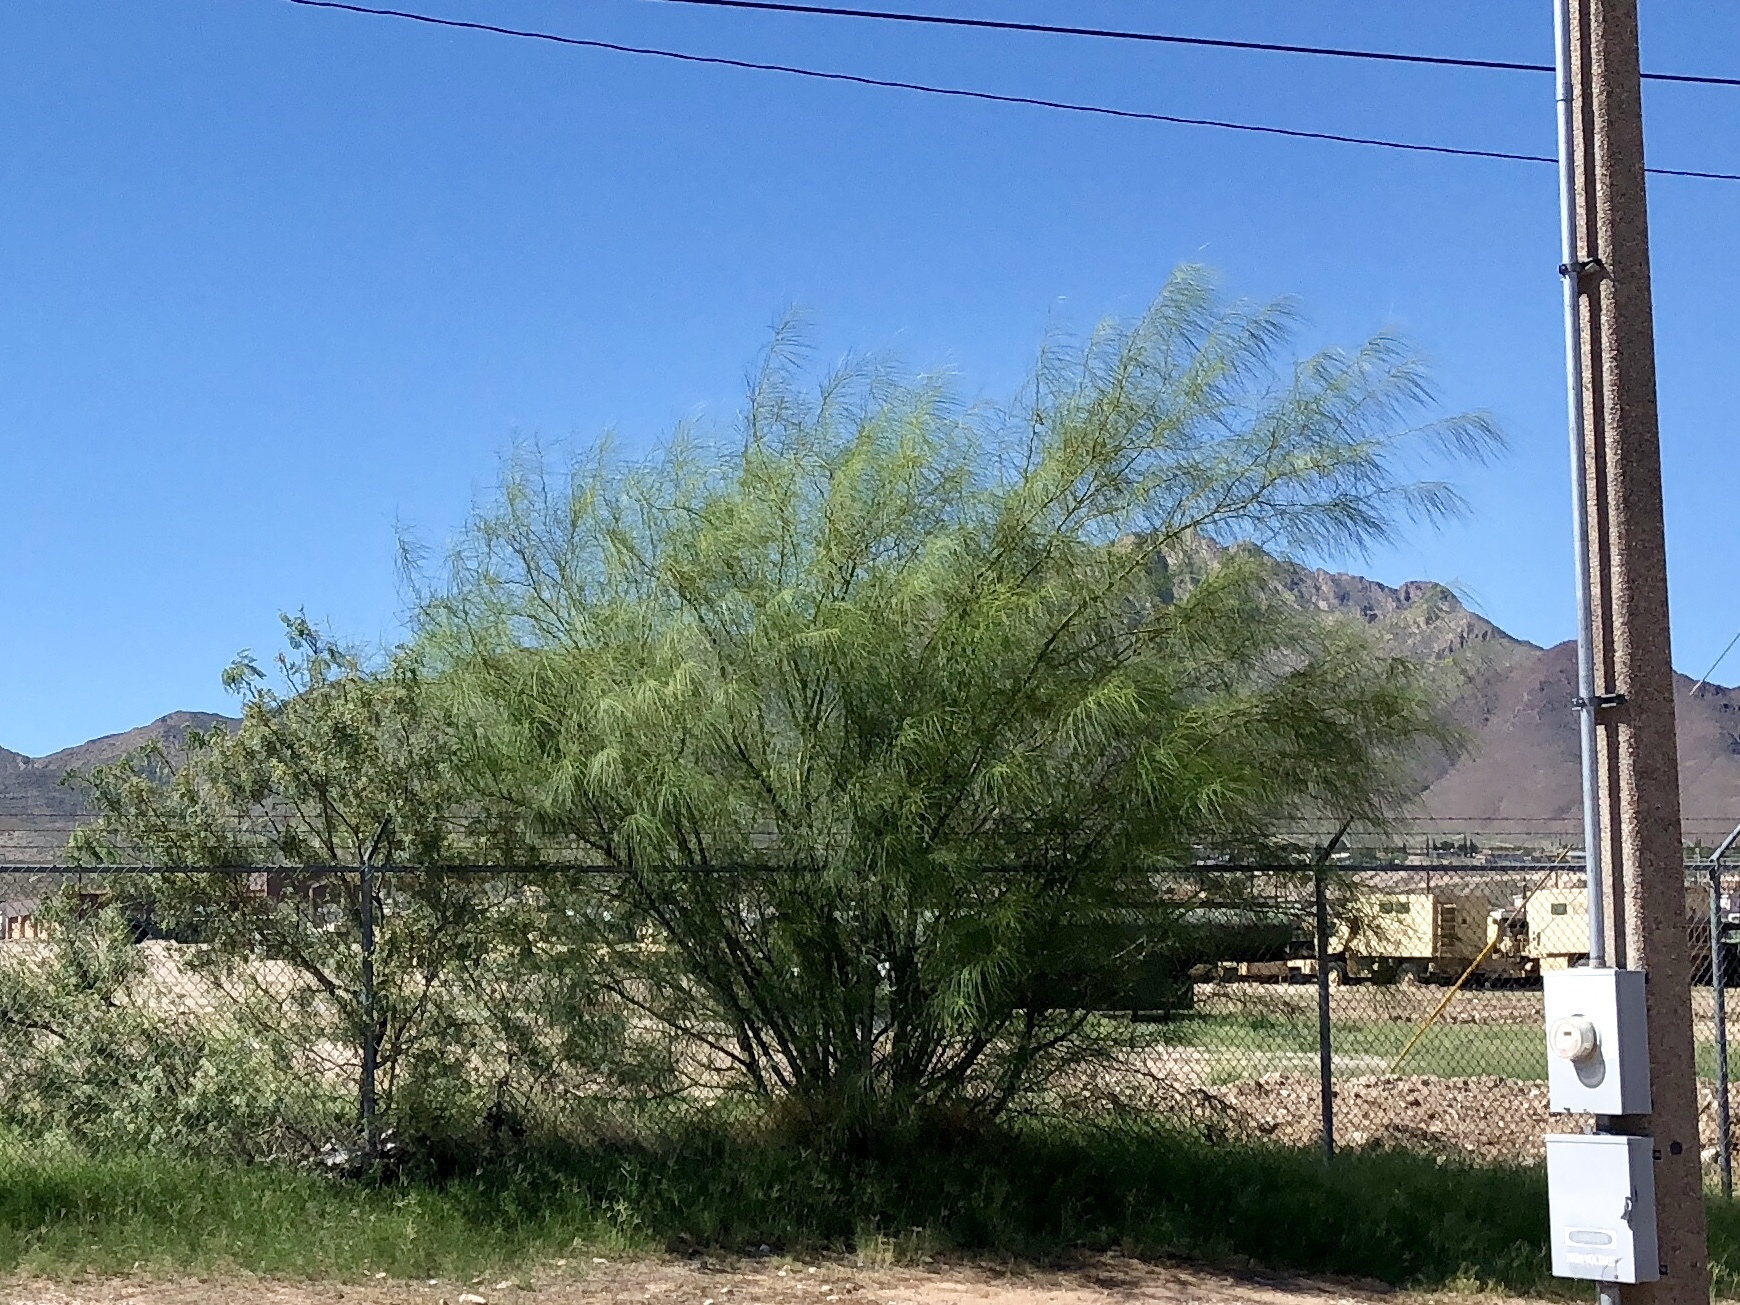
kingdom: Plantae
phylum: Tracheophyta
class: Magnoliopsida
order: Fabales
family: Fabaceae
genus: Parkinsonia
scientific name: Parkinsonia aculeata
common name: Jerusalem thorn
